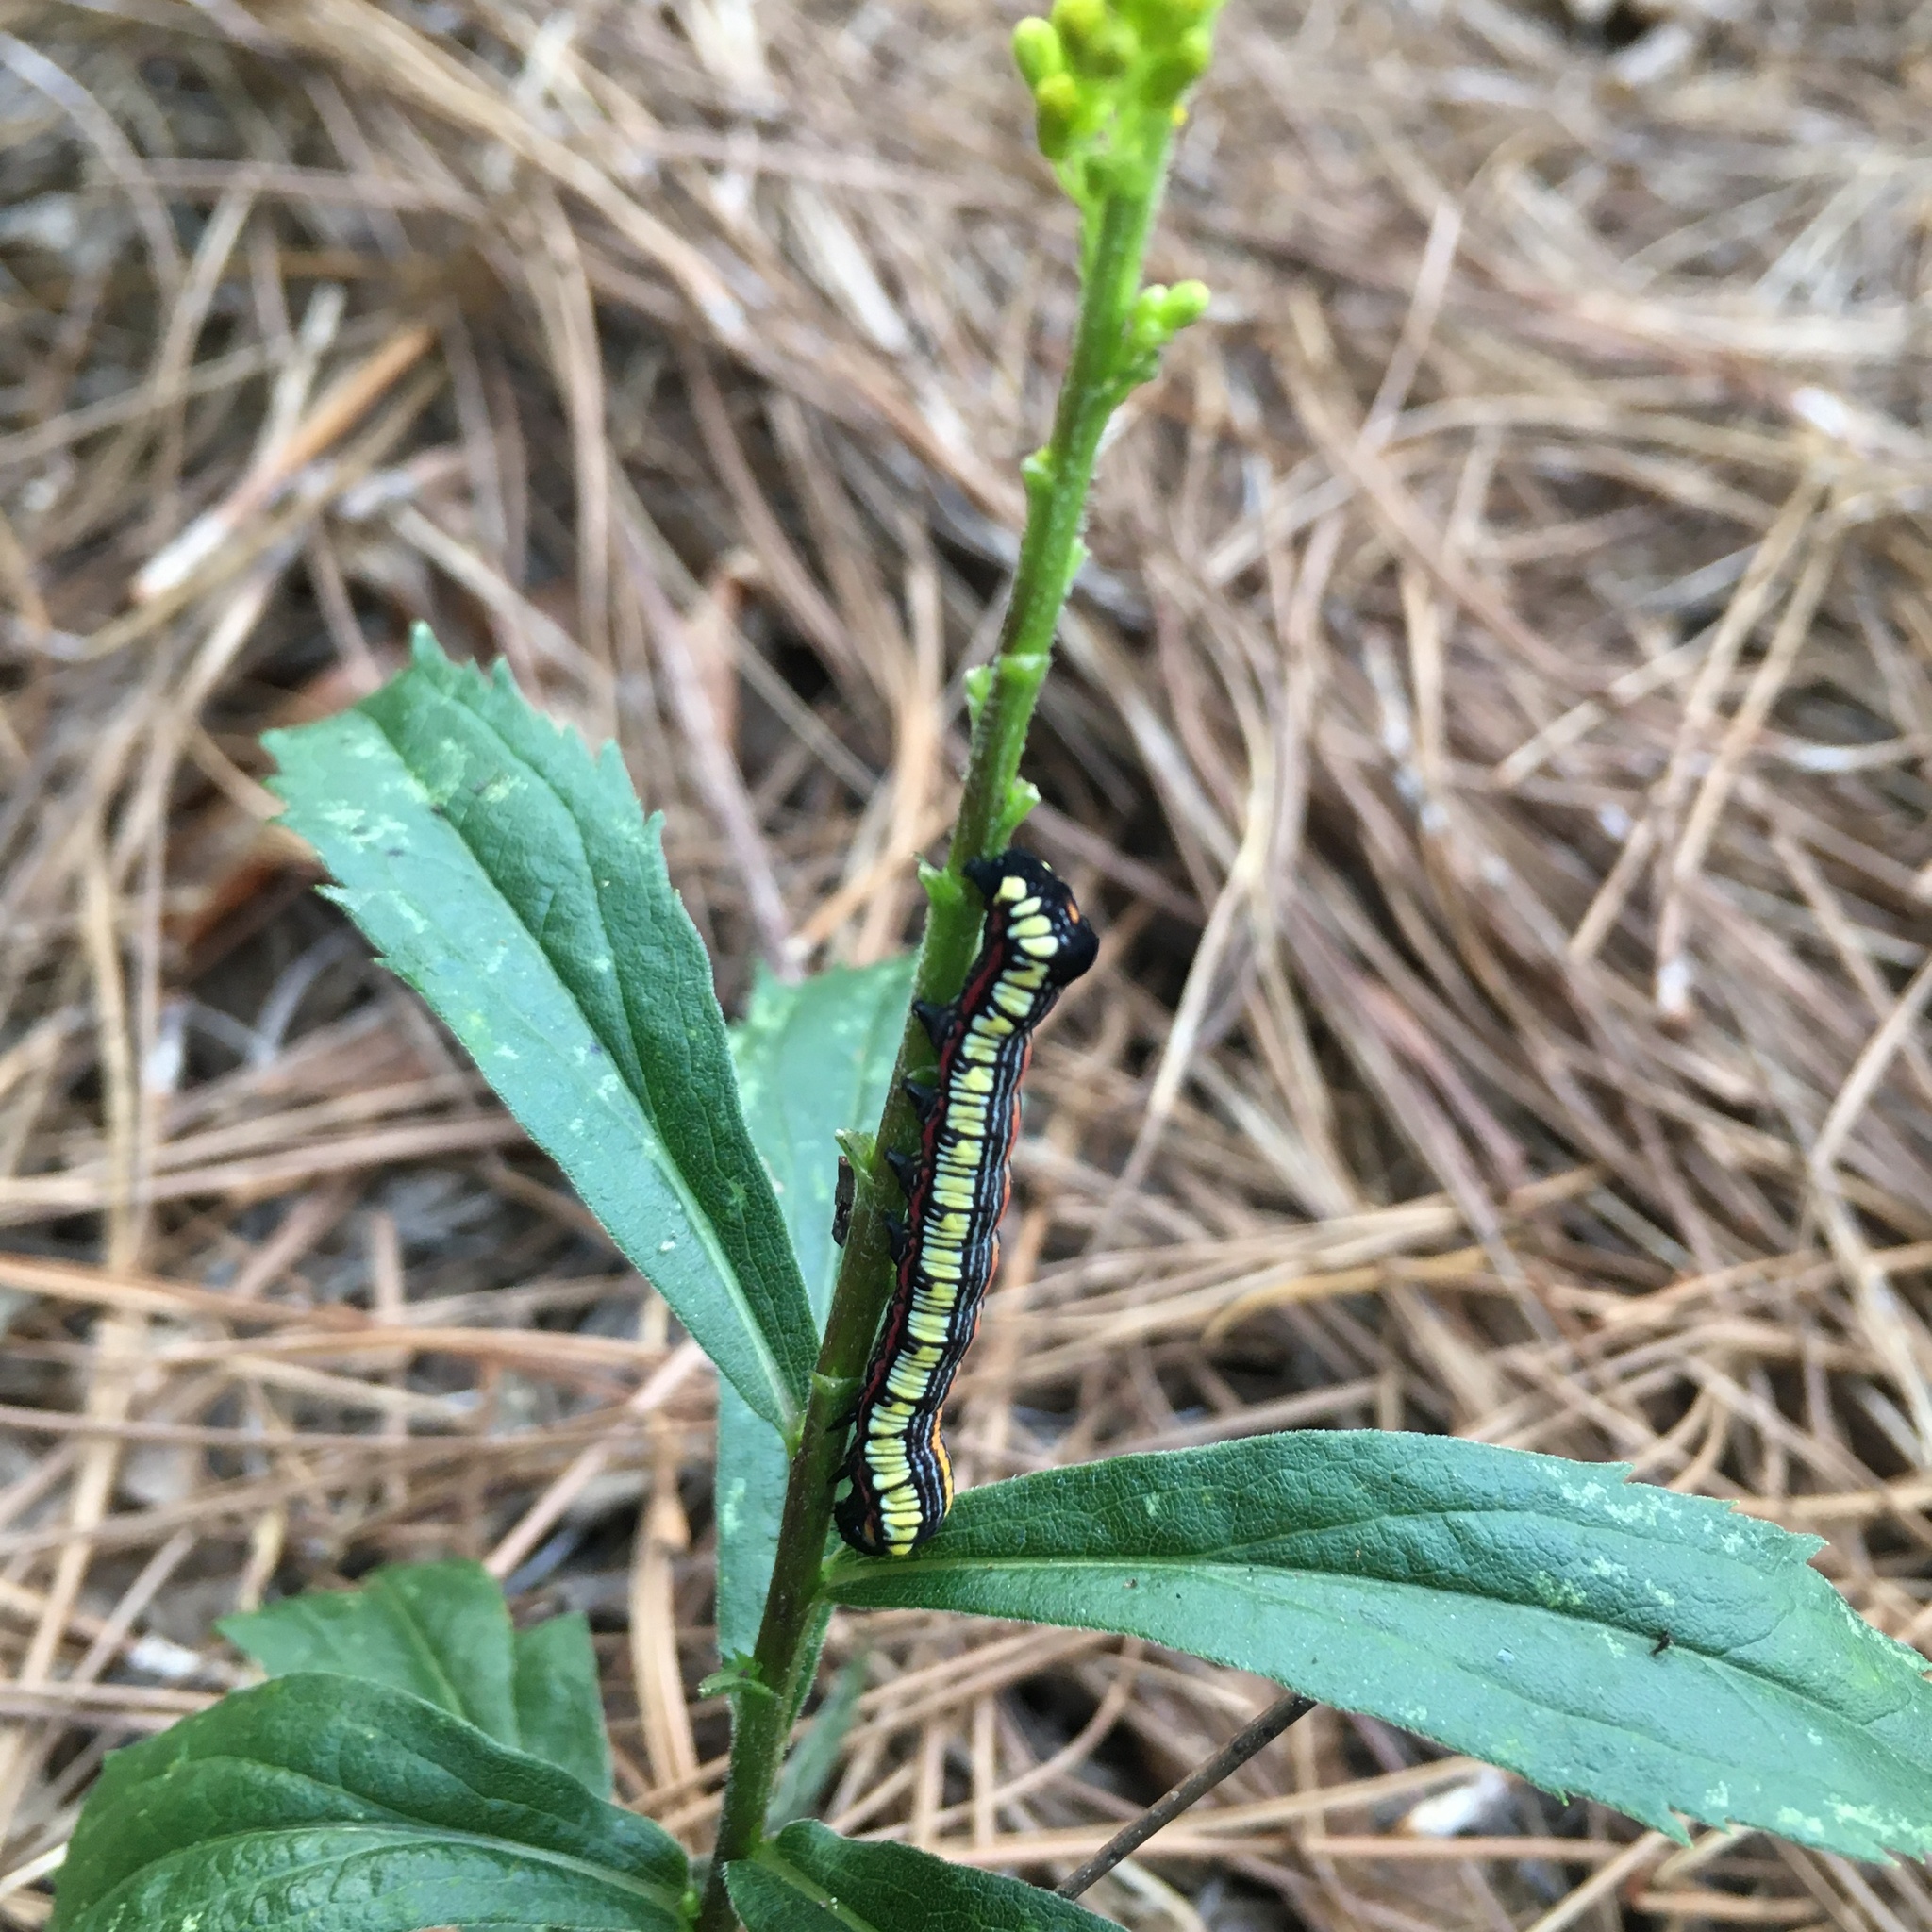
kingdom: Animalia
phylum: Arthropoda
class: Insecta
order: Lepidoptera
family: Noctuidae
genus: Cucullia
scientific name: Cucullia convexipennis
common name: Brown-hooded owlet
